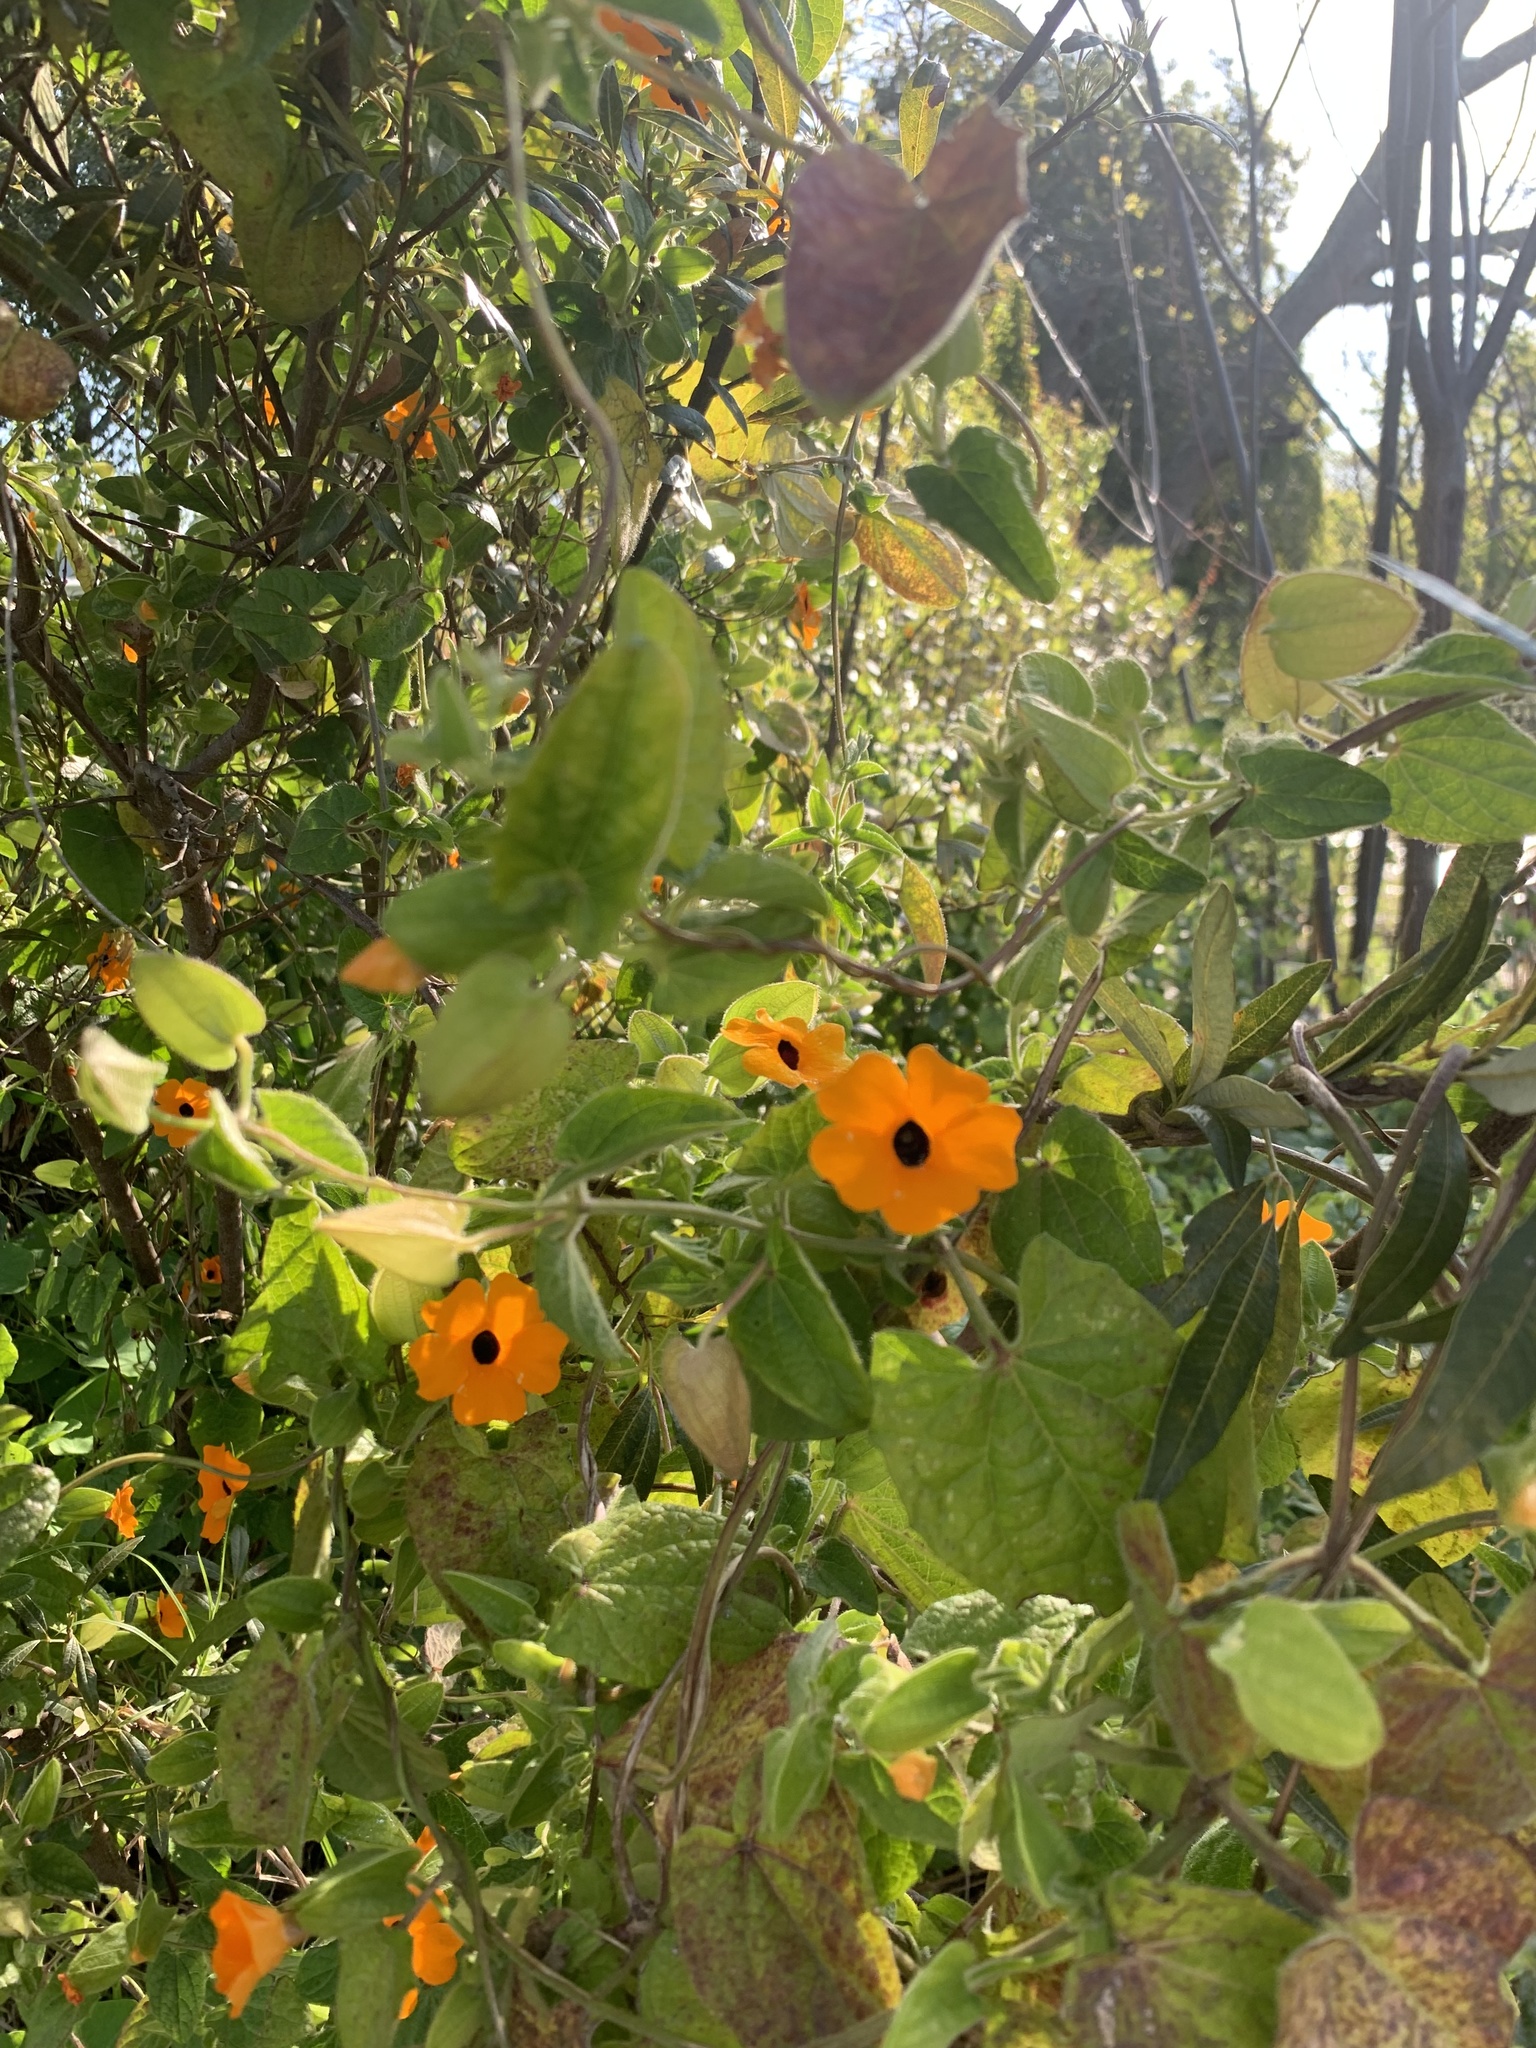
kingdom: Plantae
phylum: Tracheophyta
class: Magnoliopsida
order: Lamiales
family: Acanthaceae
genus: Thunbergia
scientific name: Thunbergia alata
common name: Blackeyed susan vine
